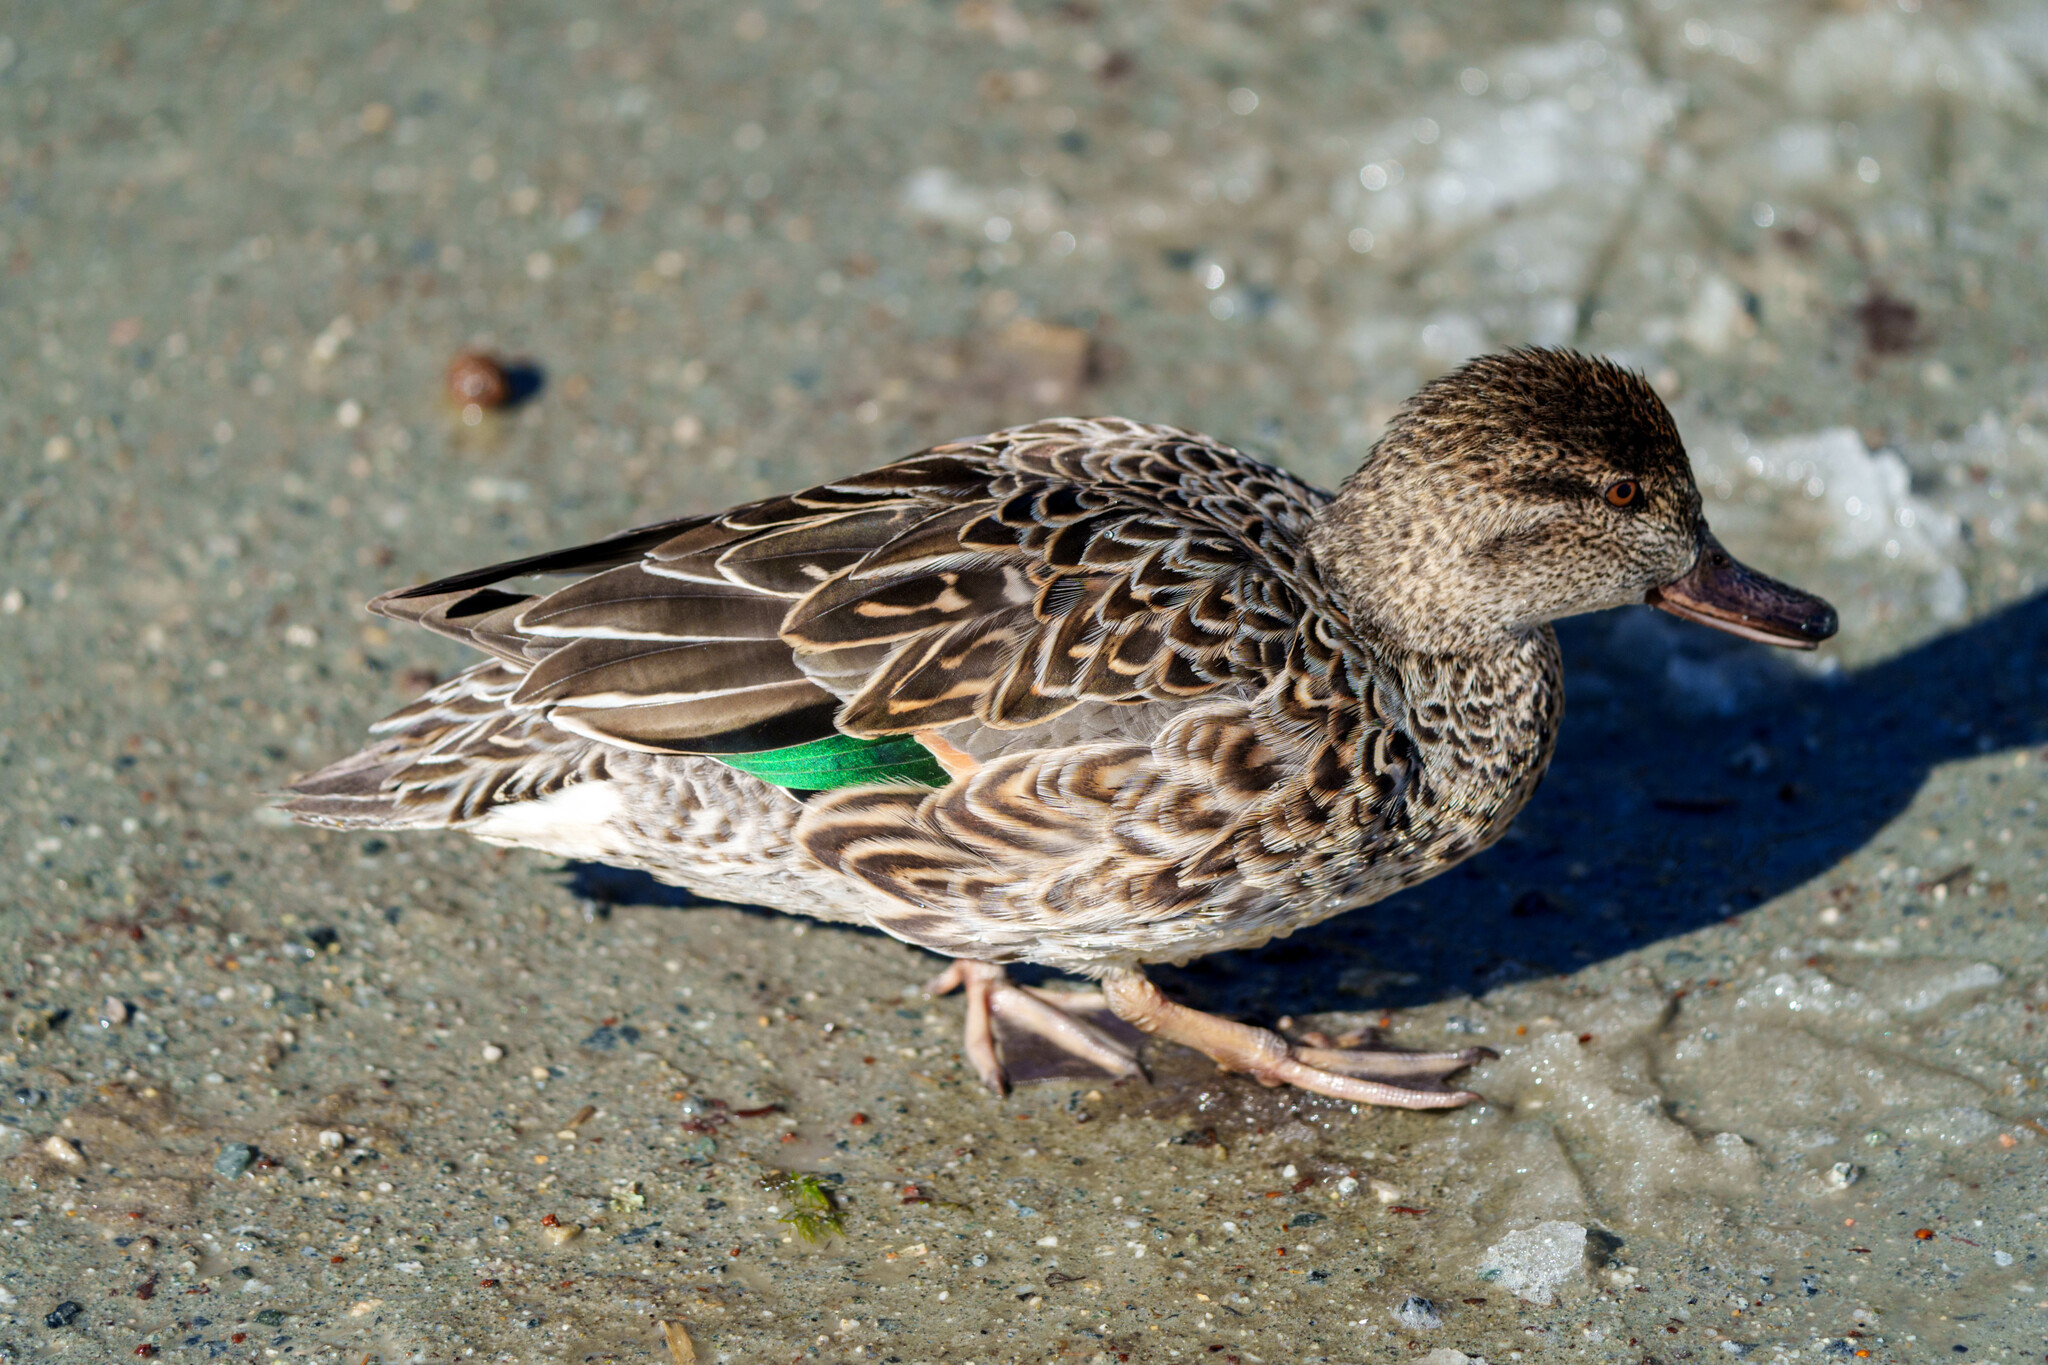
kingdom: Animalia
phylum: Chordata
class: Aves
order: Anseriformes
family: Anatidae
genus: Anas
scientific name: Anas crecca
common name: Eurasian teal
